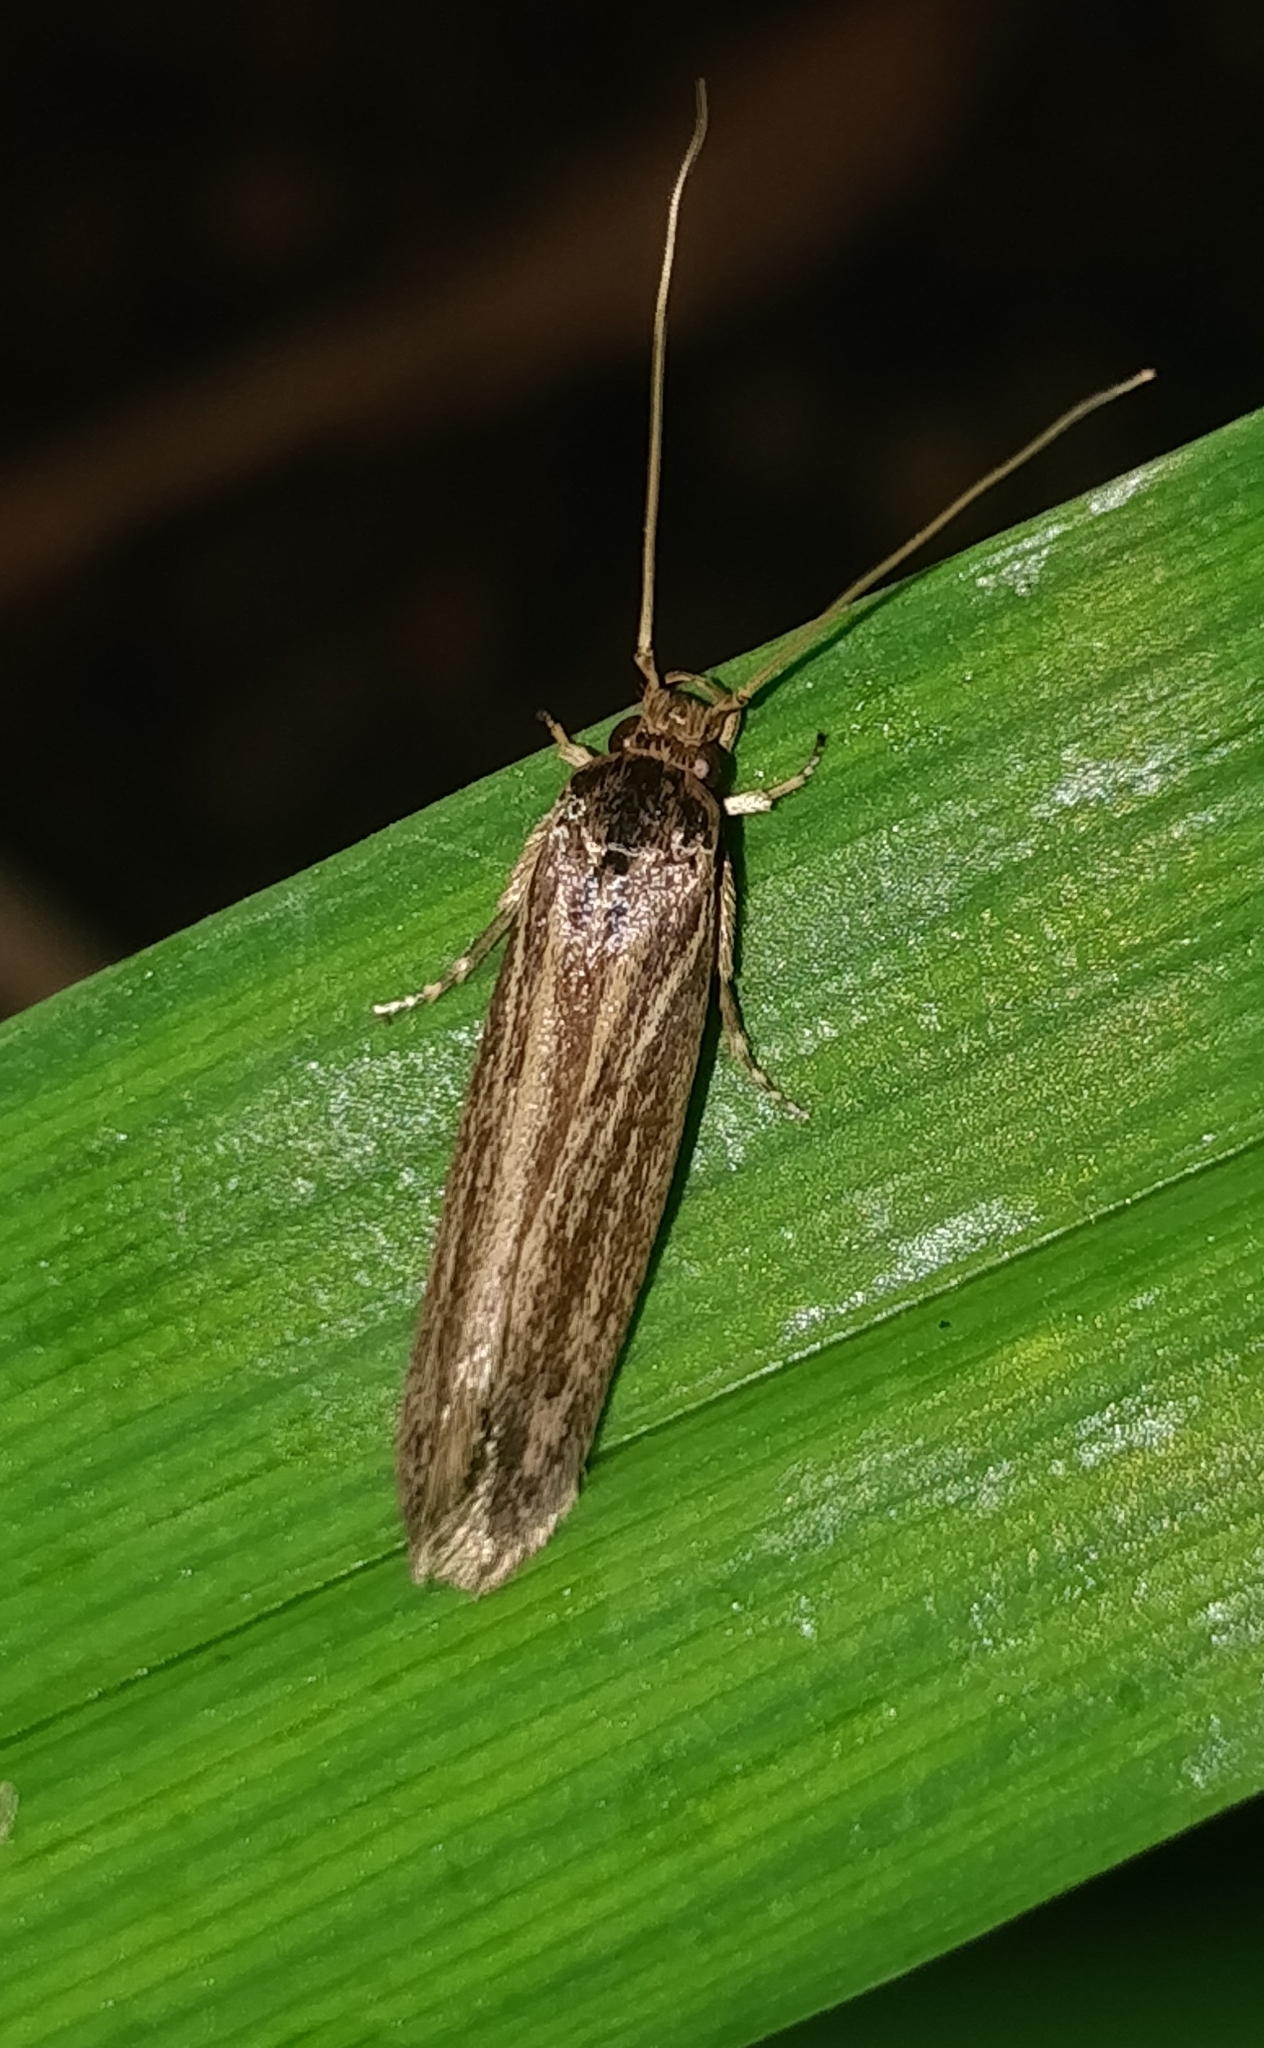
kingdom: Animalia
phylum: Arthropoda
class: Insecta
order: Lepidoptera
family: Tineidae
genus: Opogona
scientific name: Opogona sacchari
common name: Banana bud moth
